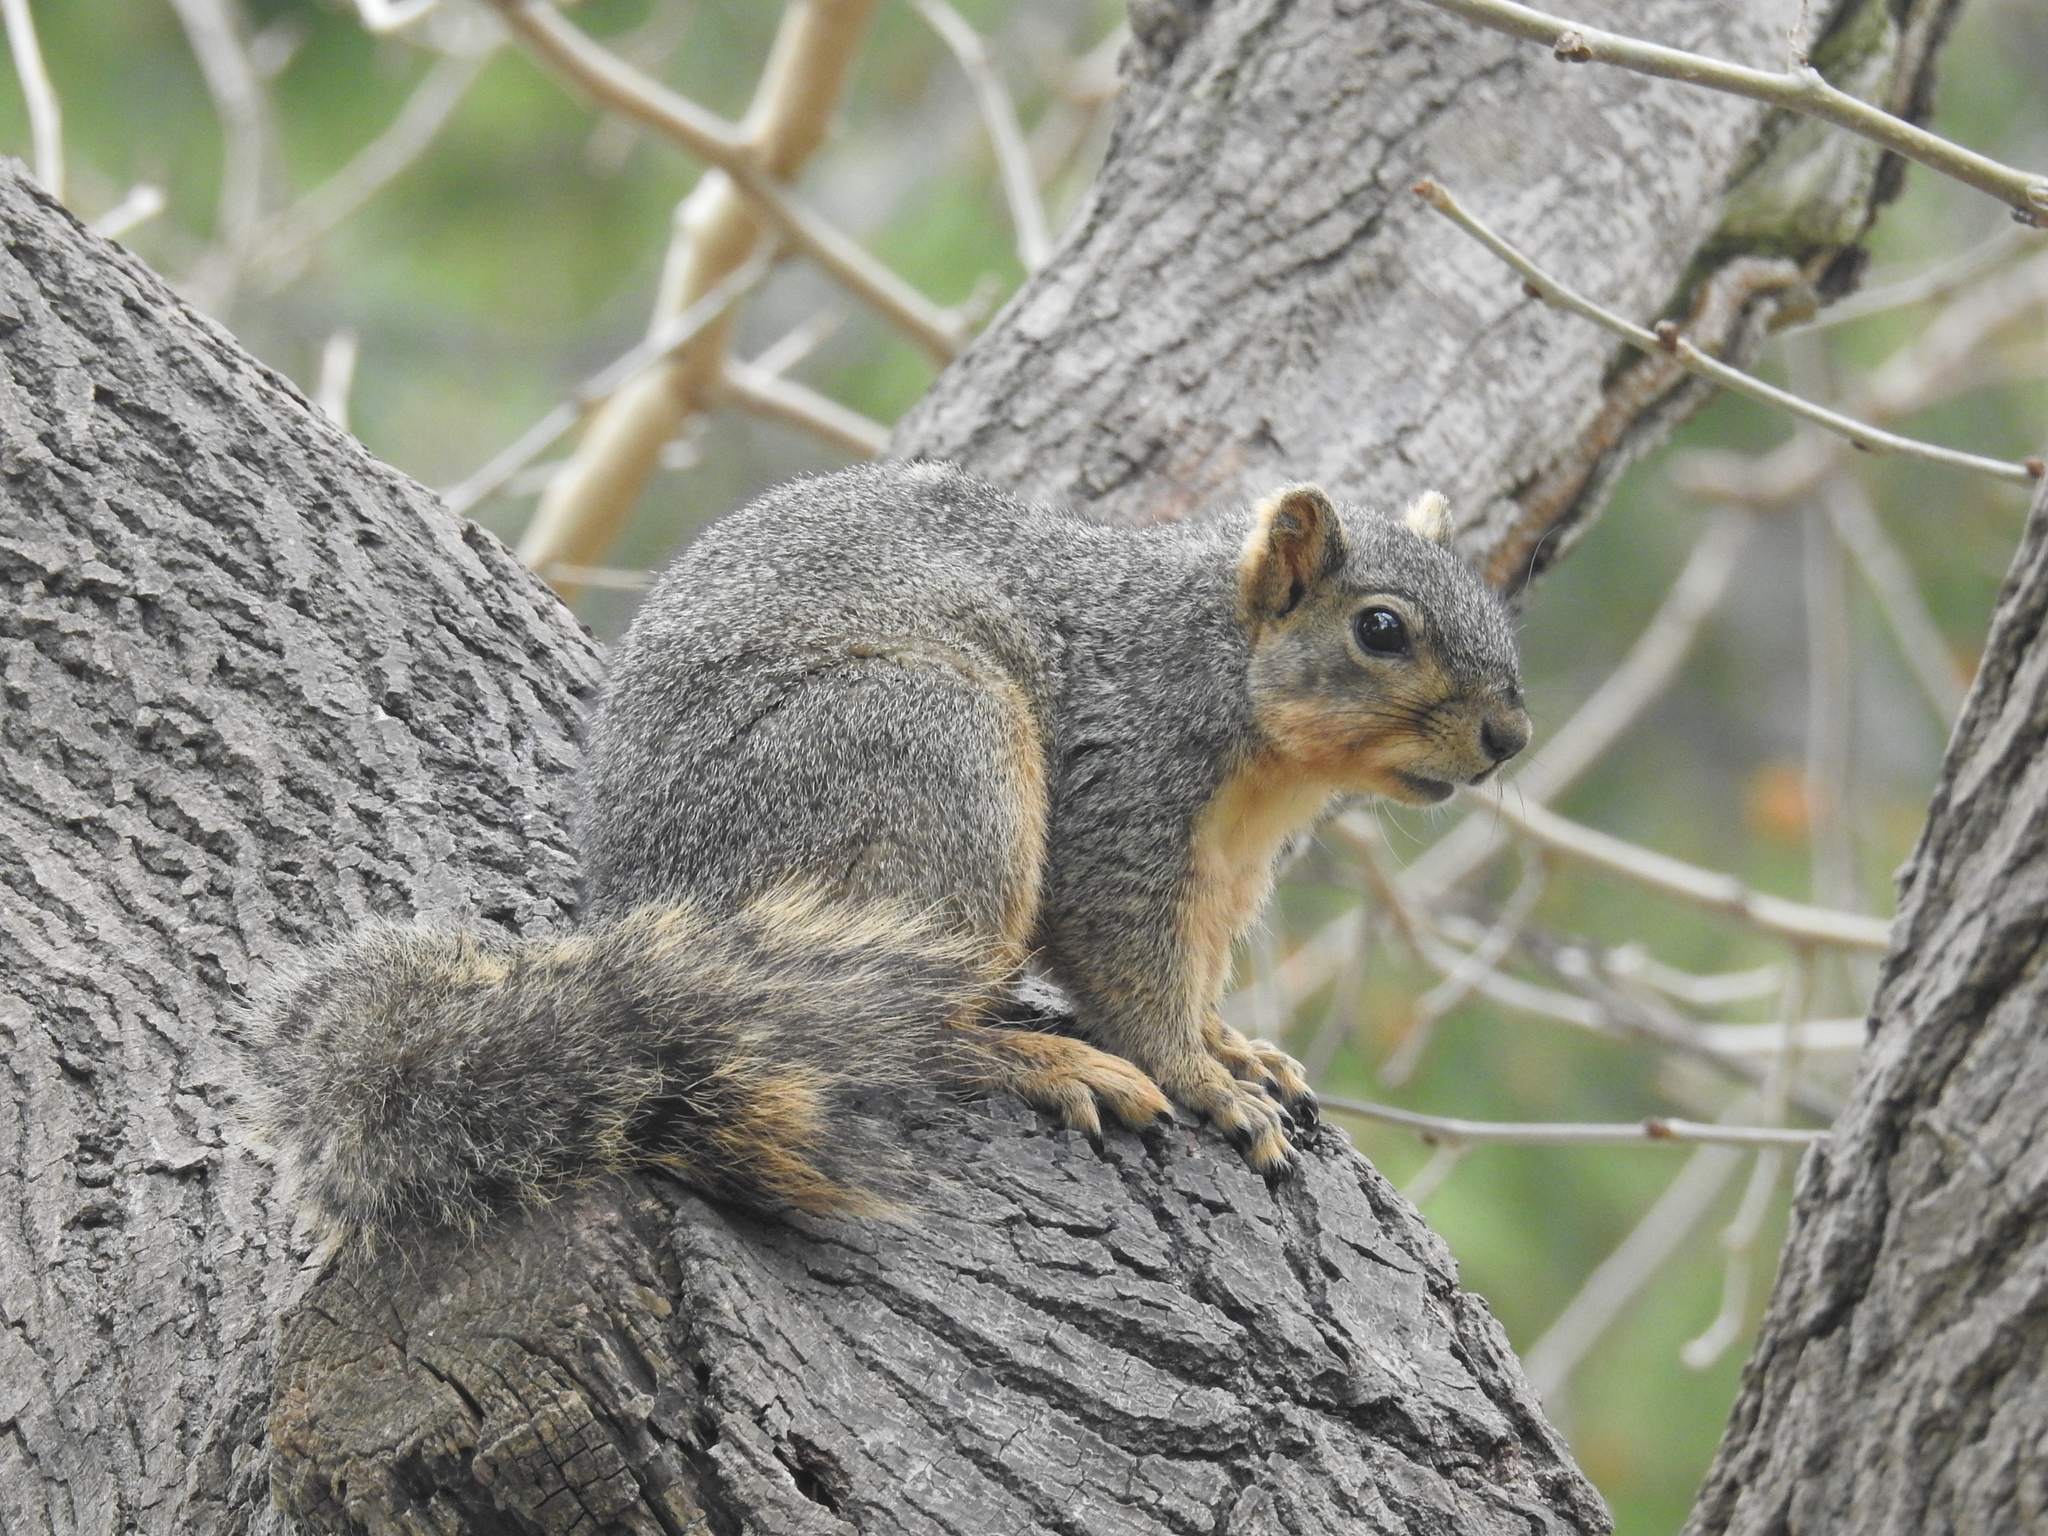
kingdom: Animalia
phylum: Chordata
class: Mammalia
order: Rodentia
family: Sciuridae
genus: Sciurus
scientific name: Sciurus niger
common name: Fox squirrel
